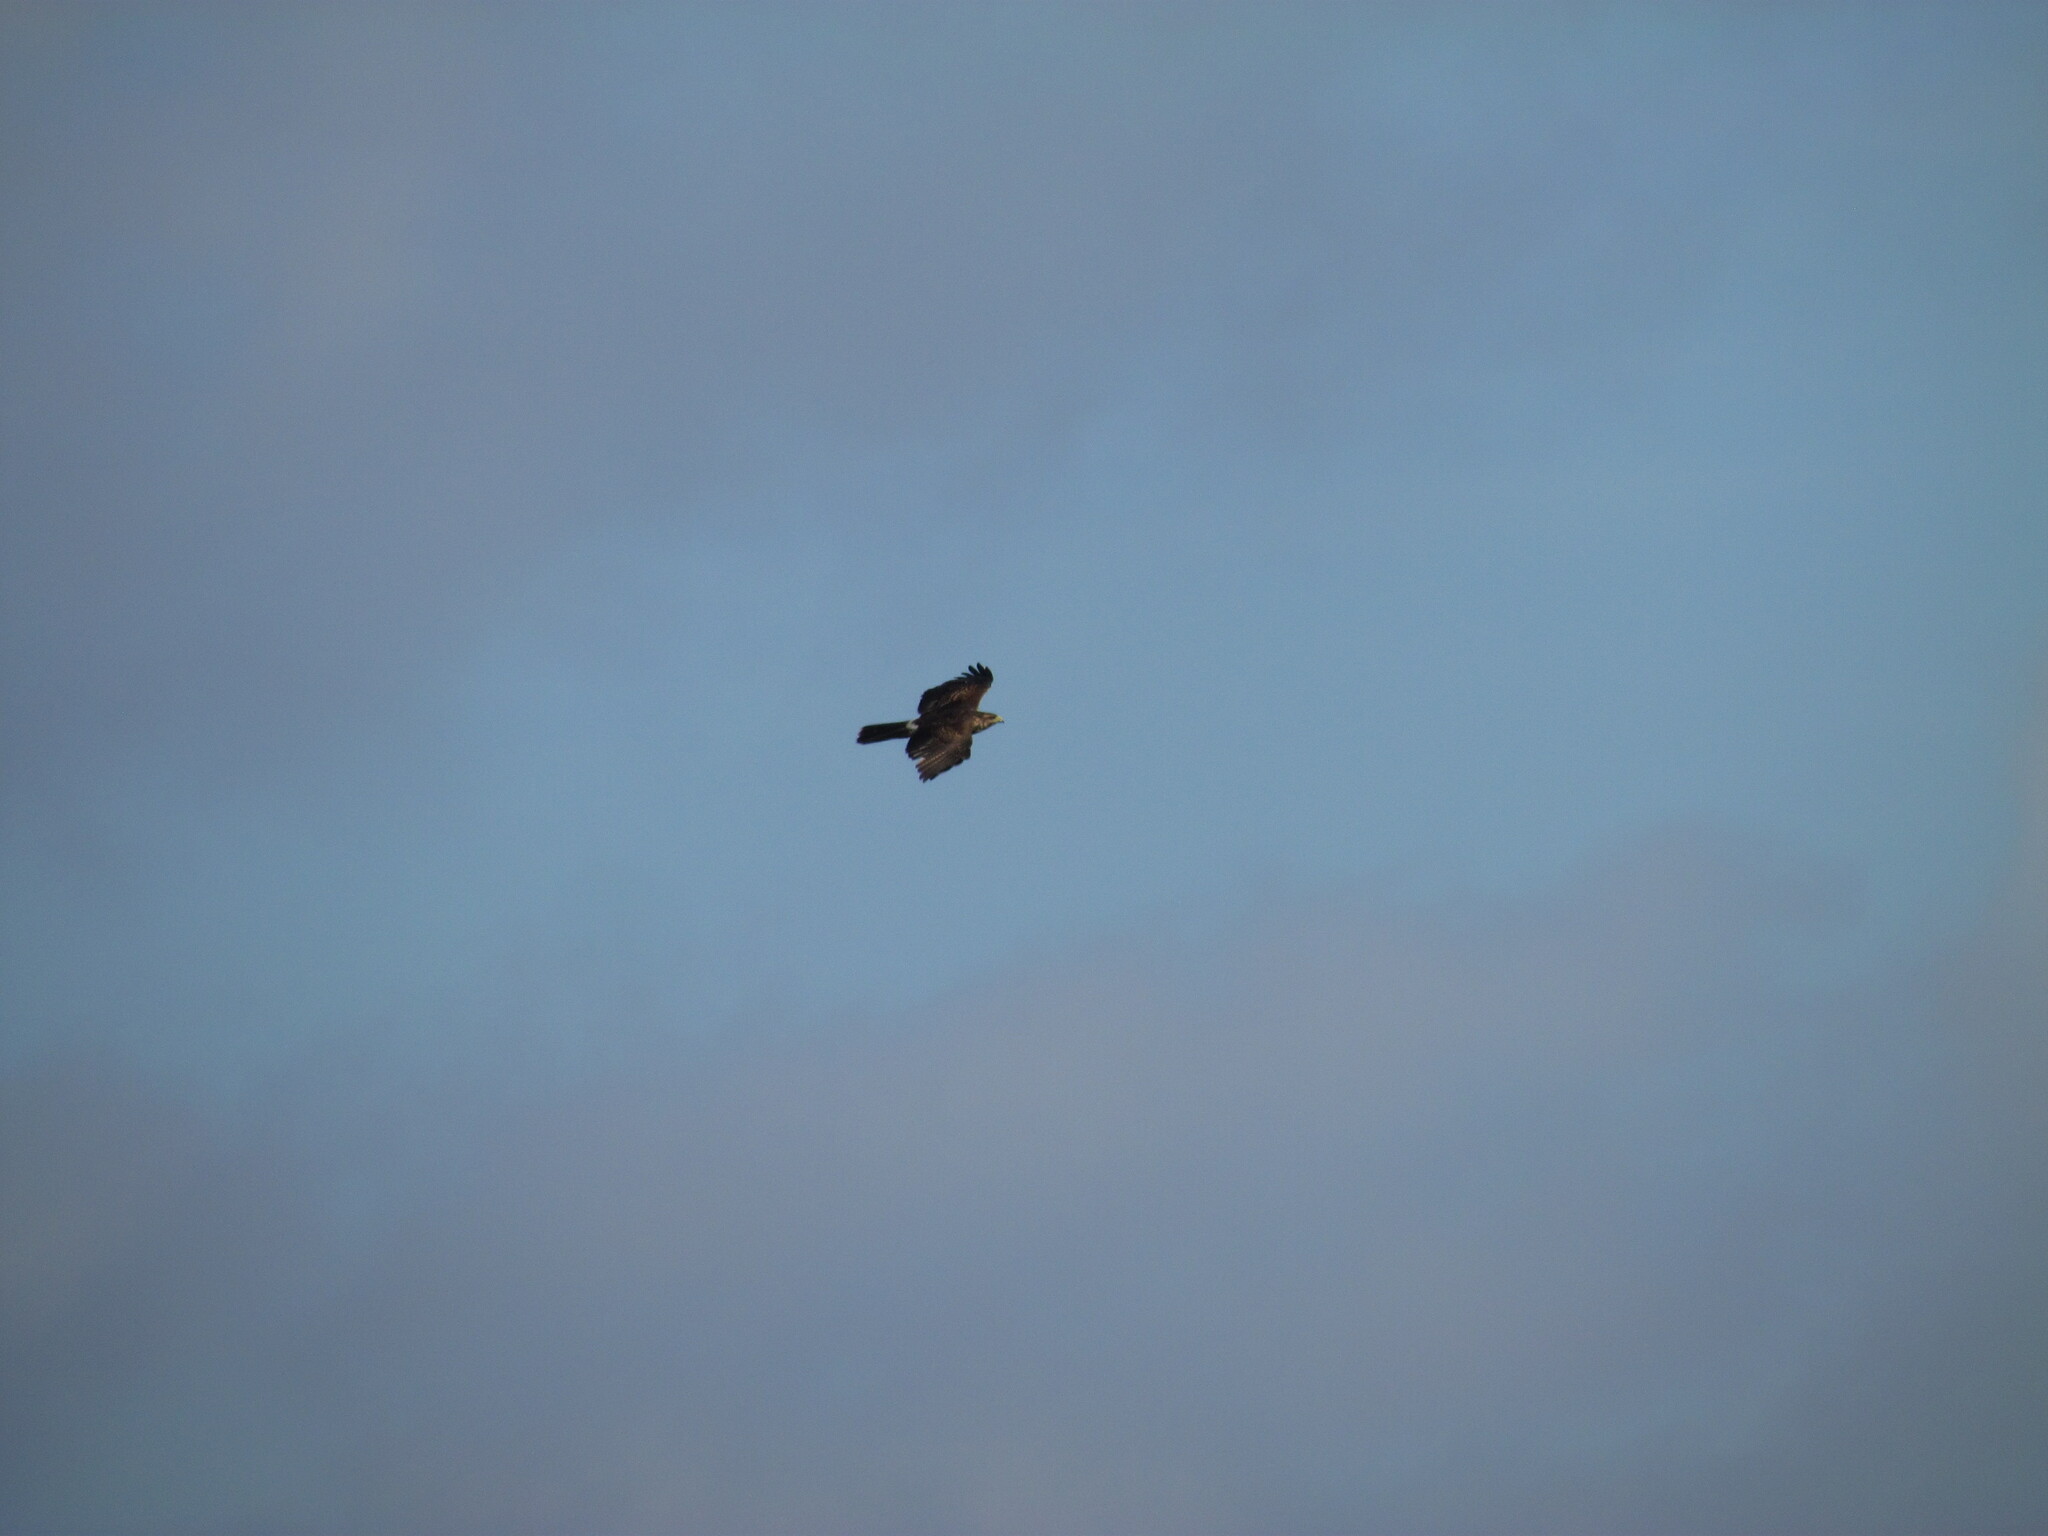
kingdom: Animalia
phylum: Chordata
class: Aves
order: Accipitriformes
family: Accipitridae
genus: Parabuteo
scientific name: Parabuteo unicinctus
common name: Harris's hawk
